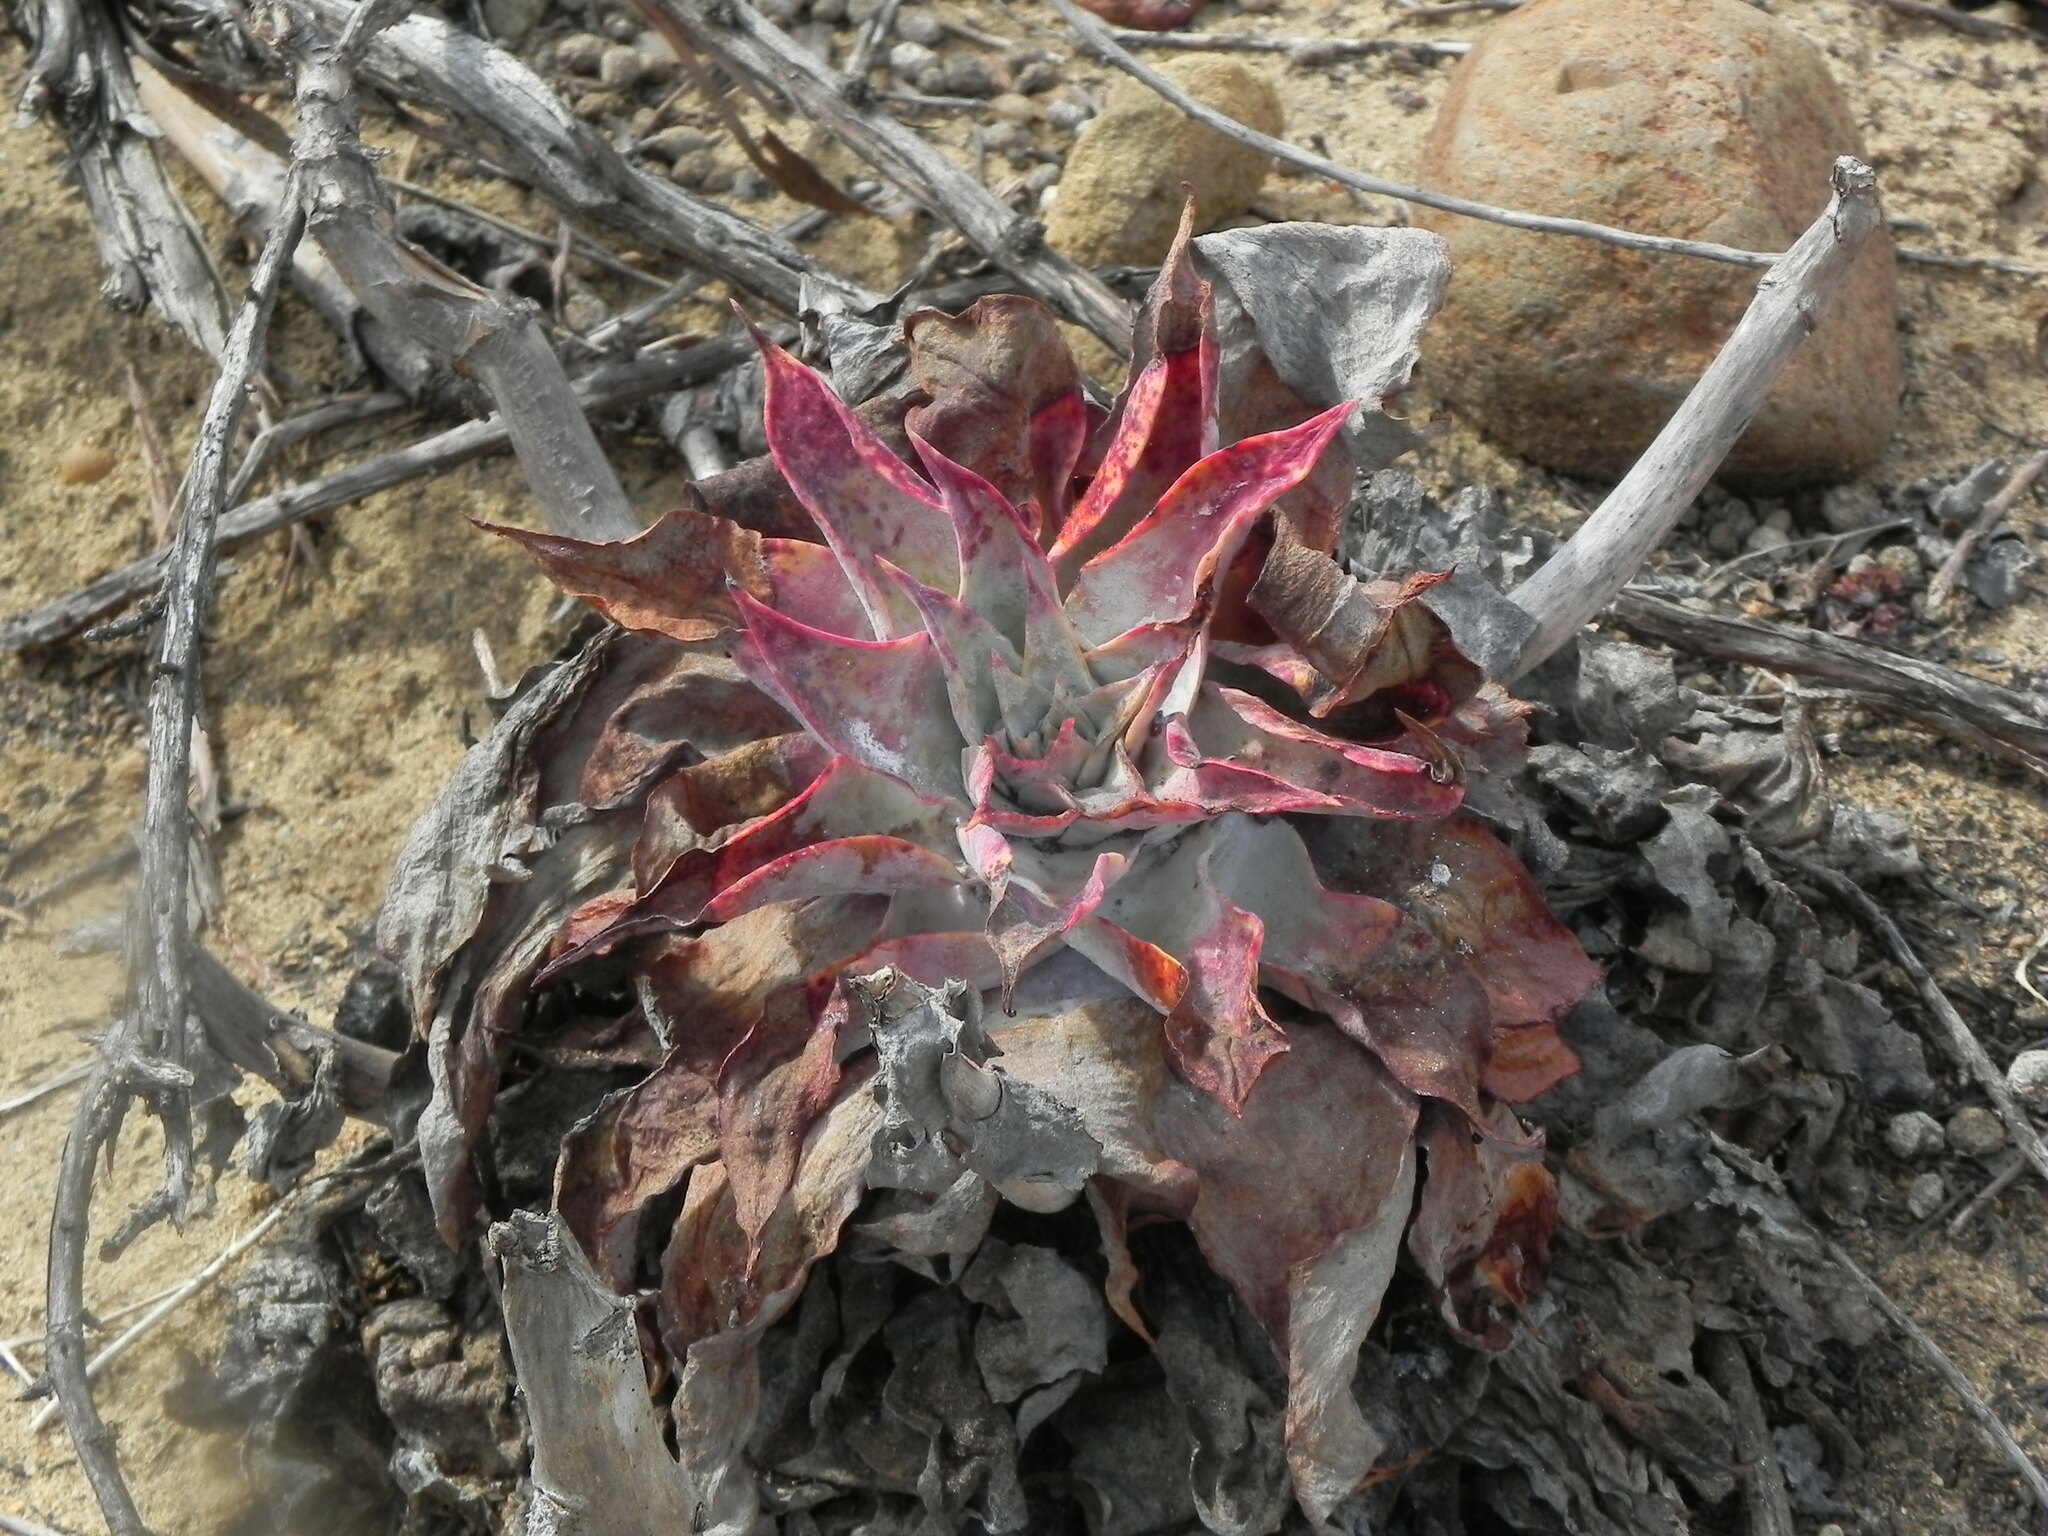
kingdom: Plantae
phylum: Tracheophyta
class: Magnoliopsida
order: Saxifragales
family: Crassulaceae
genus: Dudleya
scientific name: Dudleya pulverulenta
